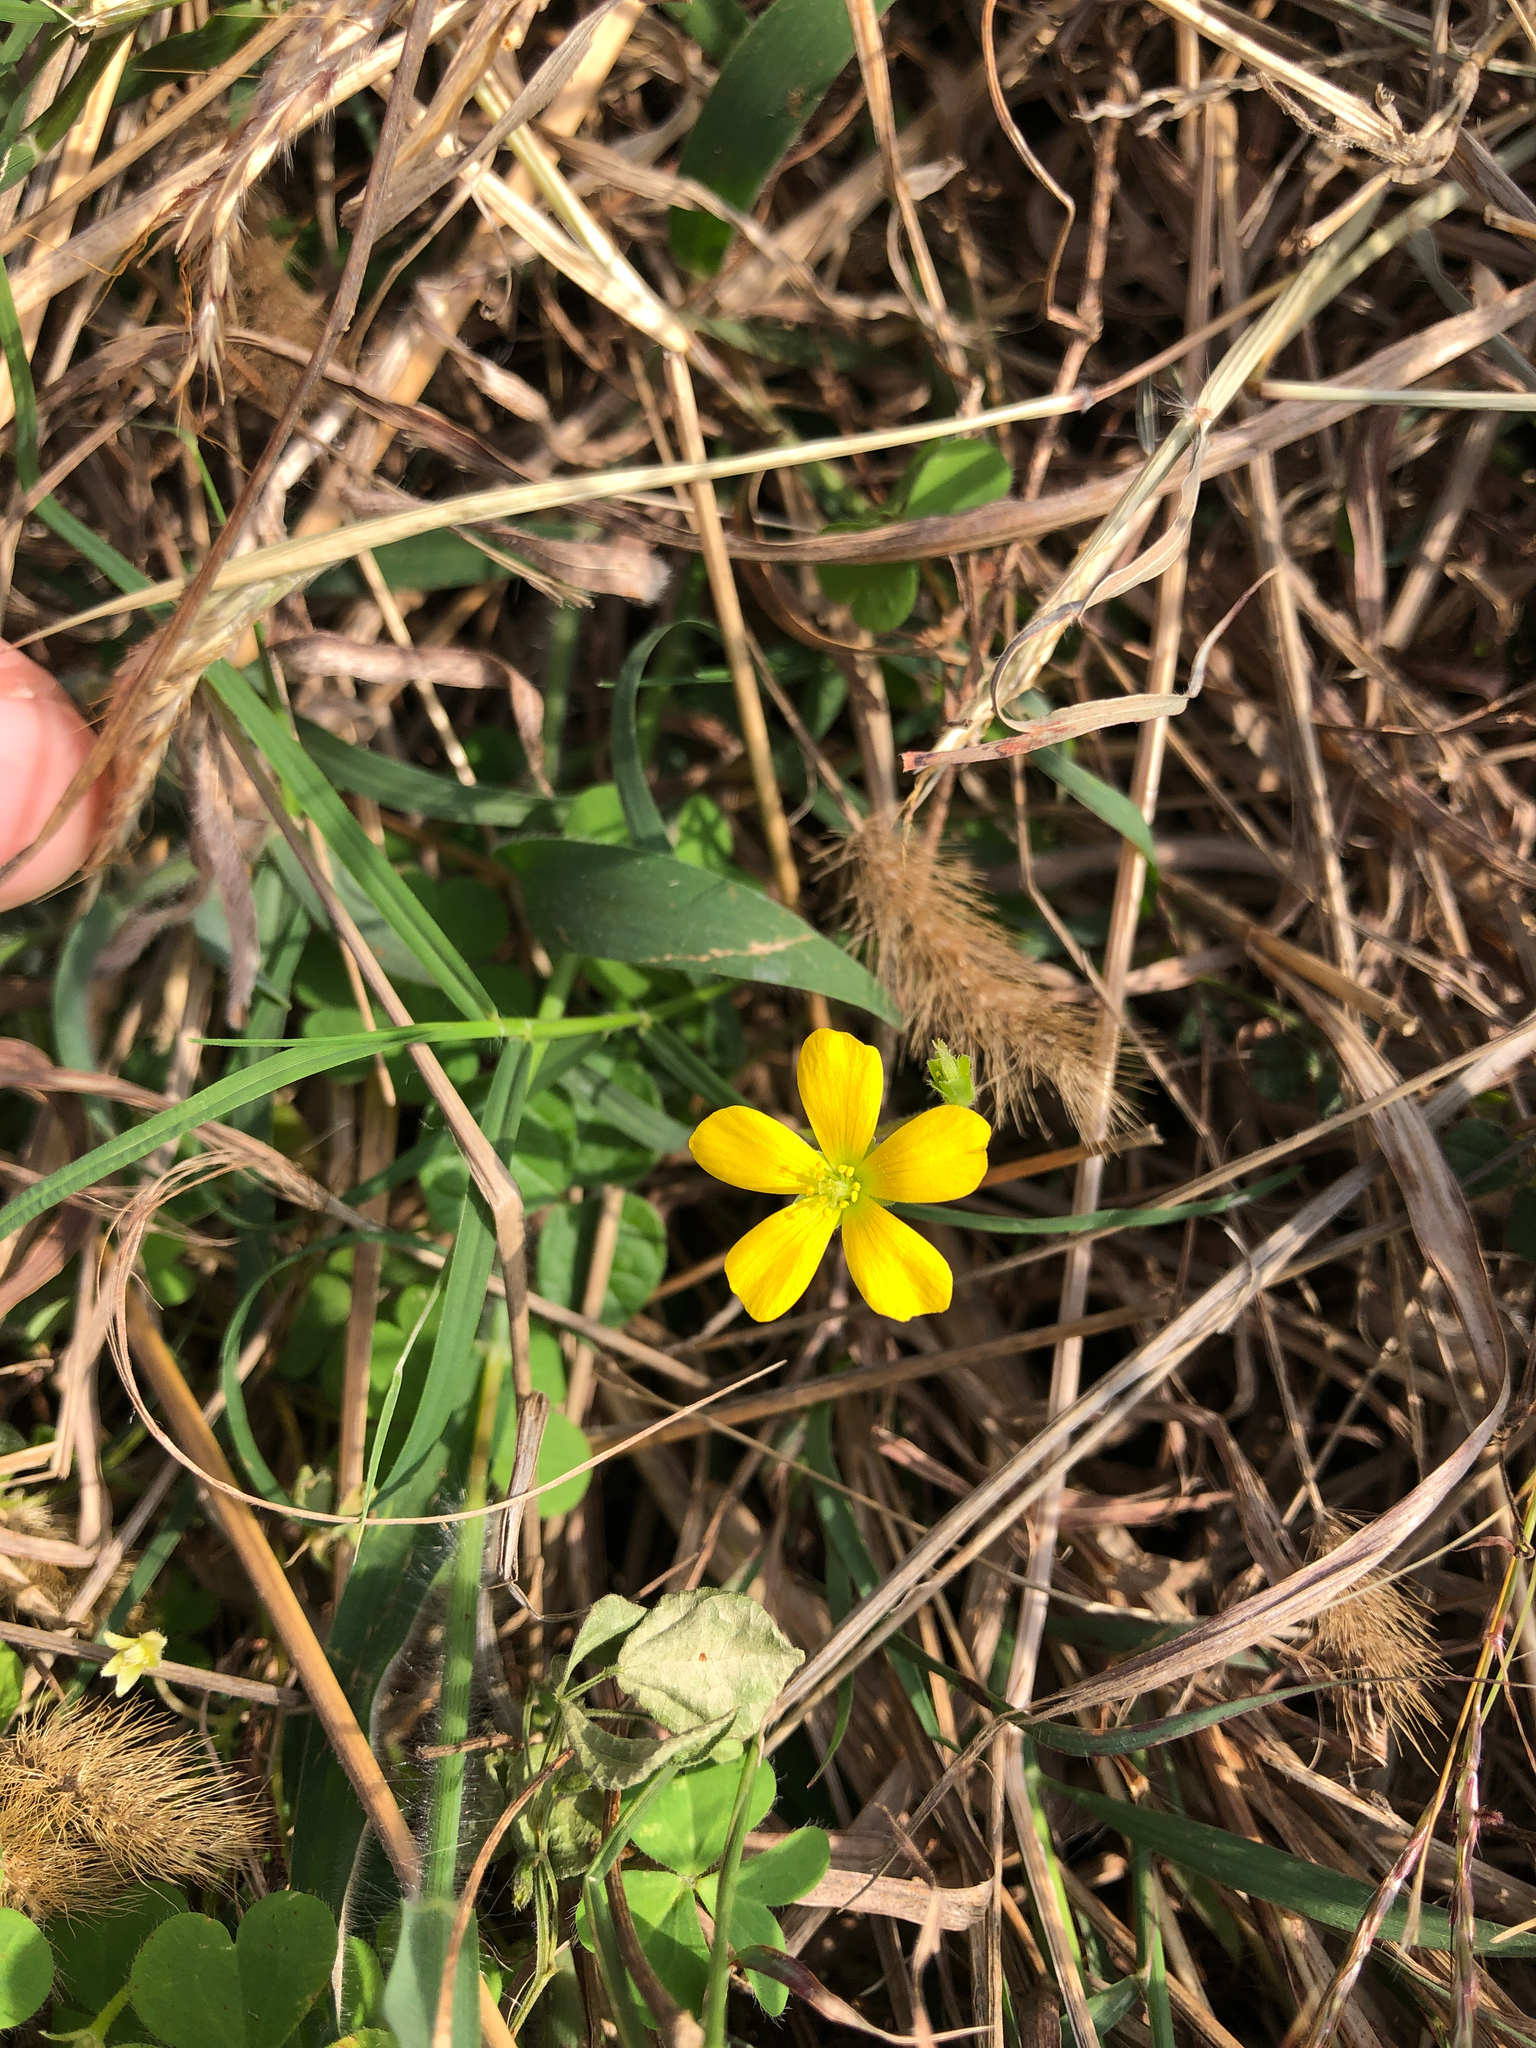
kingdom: Plantae
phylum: Tracheophyta
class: Magnoliopsida
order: Oxalidales
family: Oxalidaceae
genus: Oxalis
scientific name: Oxalis corniculata
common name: Procumbent yellow-sorrel
